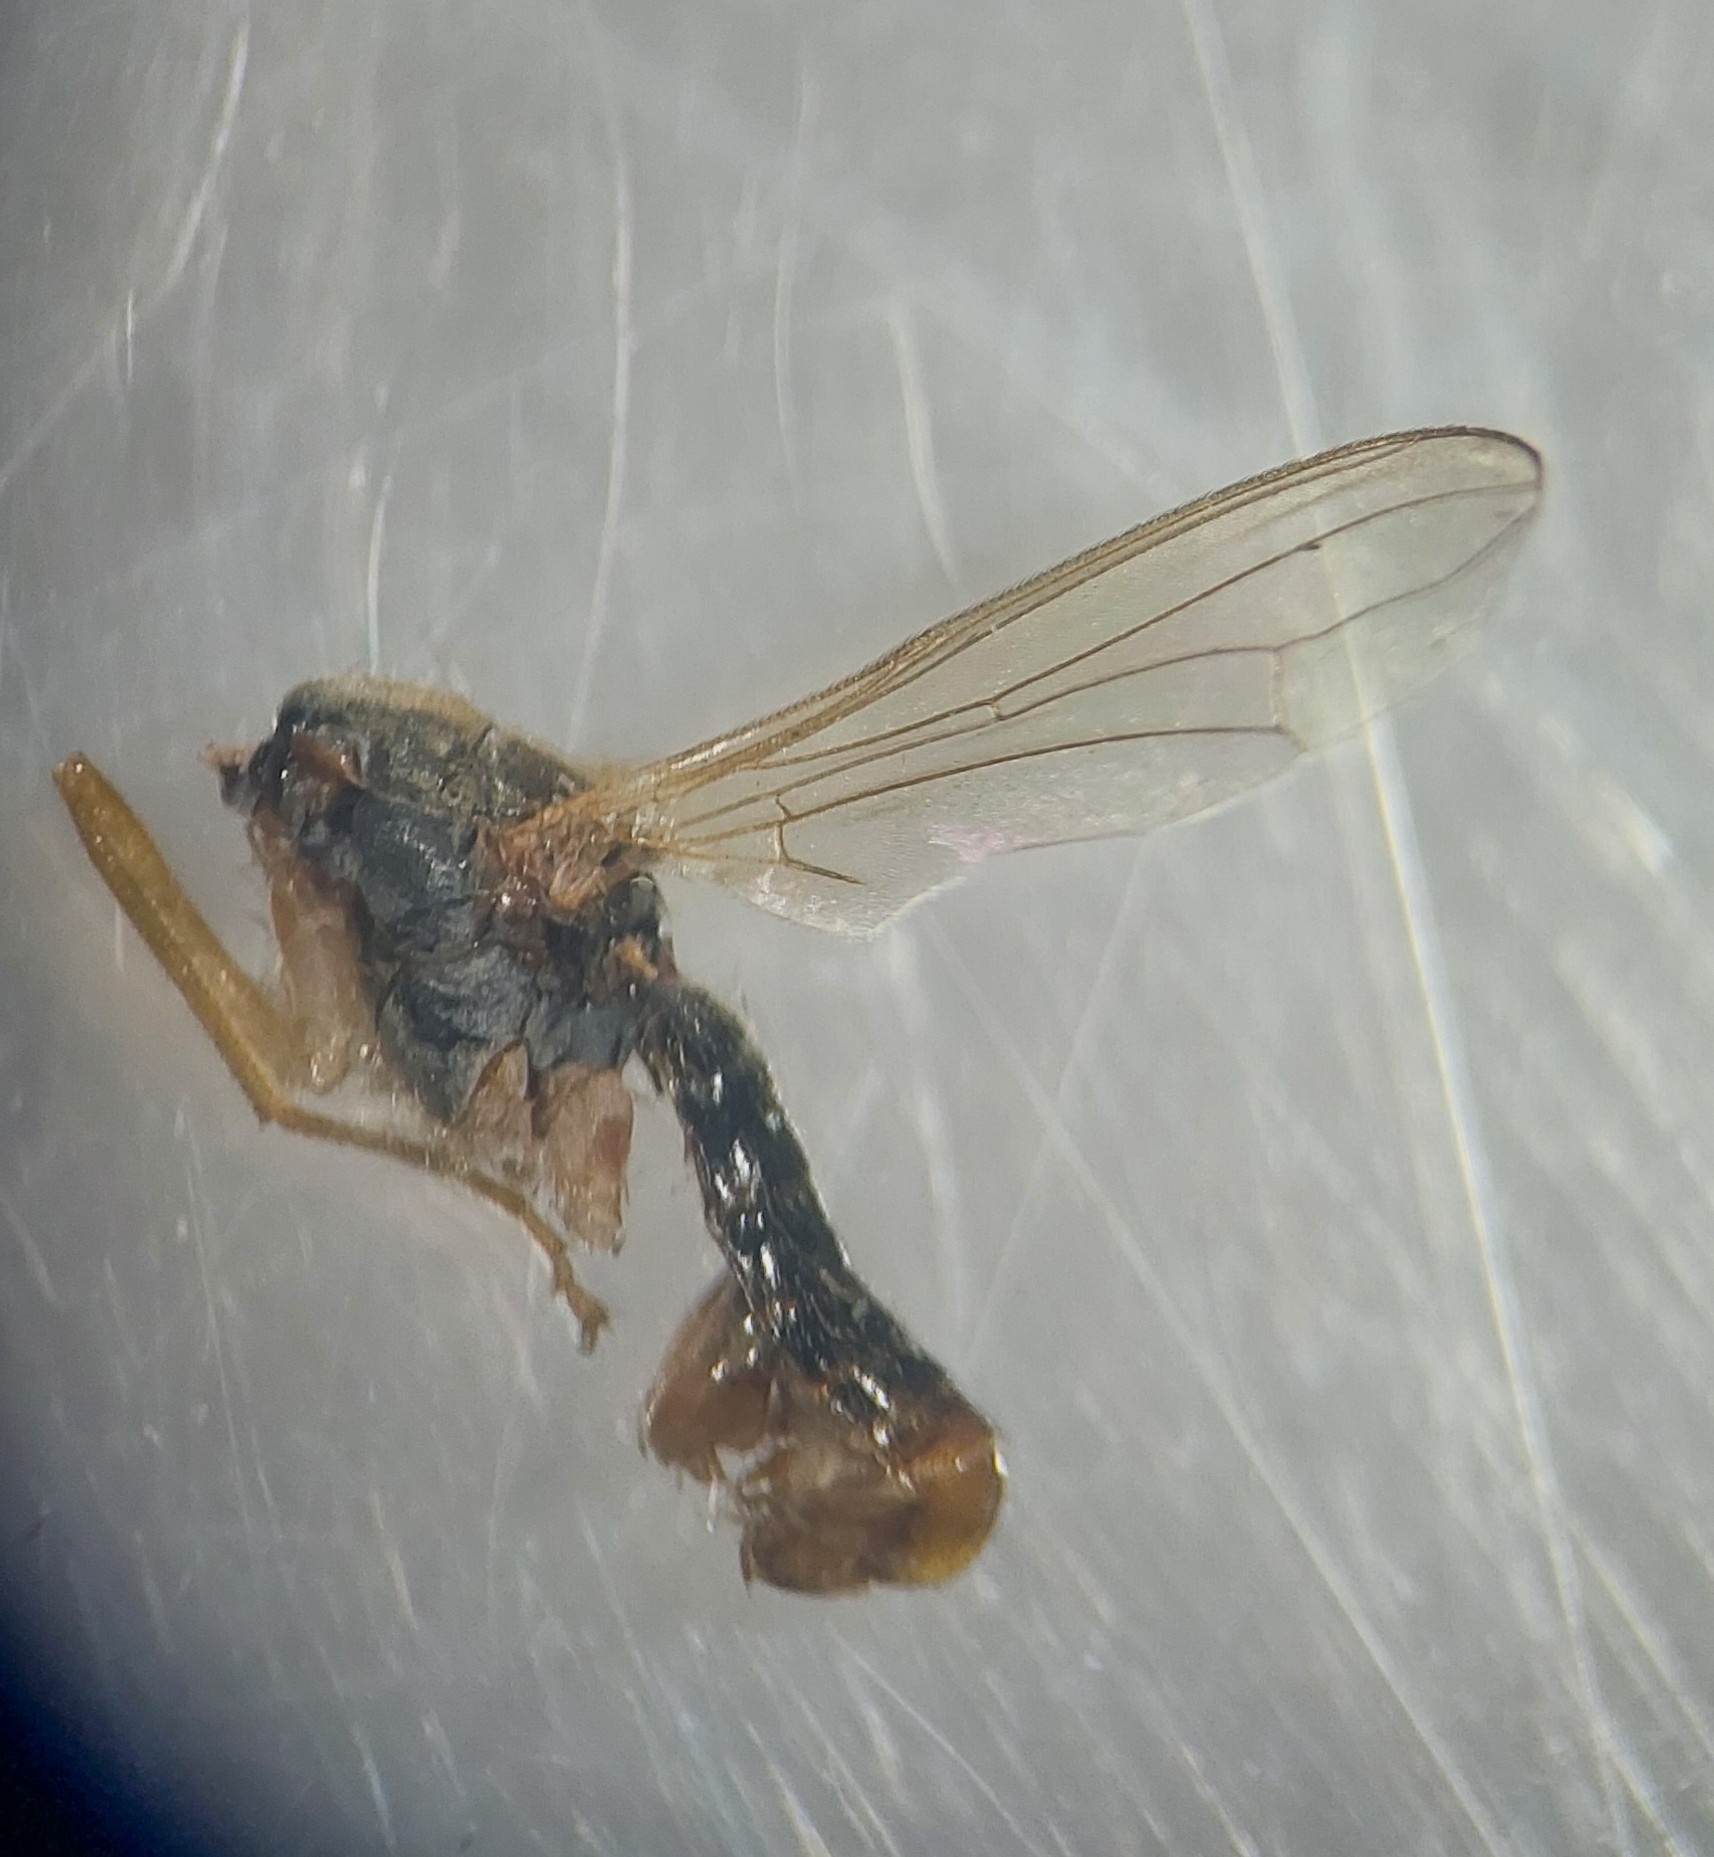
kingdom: Animalia
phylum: Arthropoda
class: Insecta
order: Diptera
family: Micropezidae
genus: Compsobata
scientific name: Compsobata cibaria
